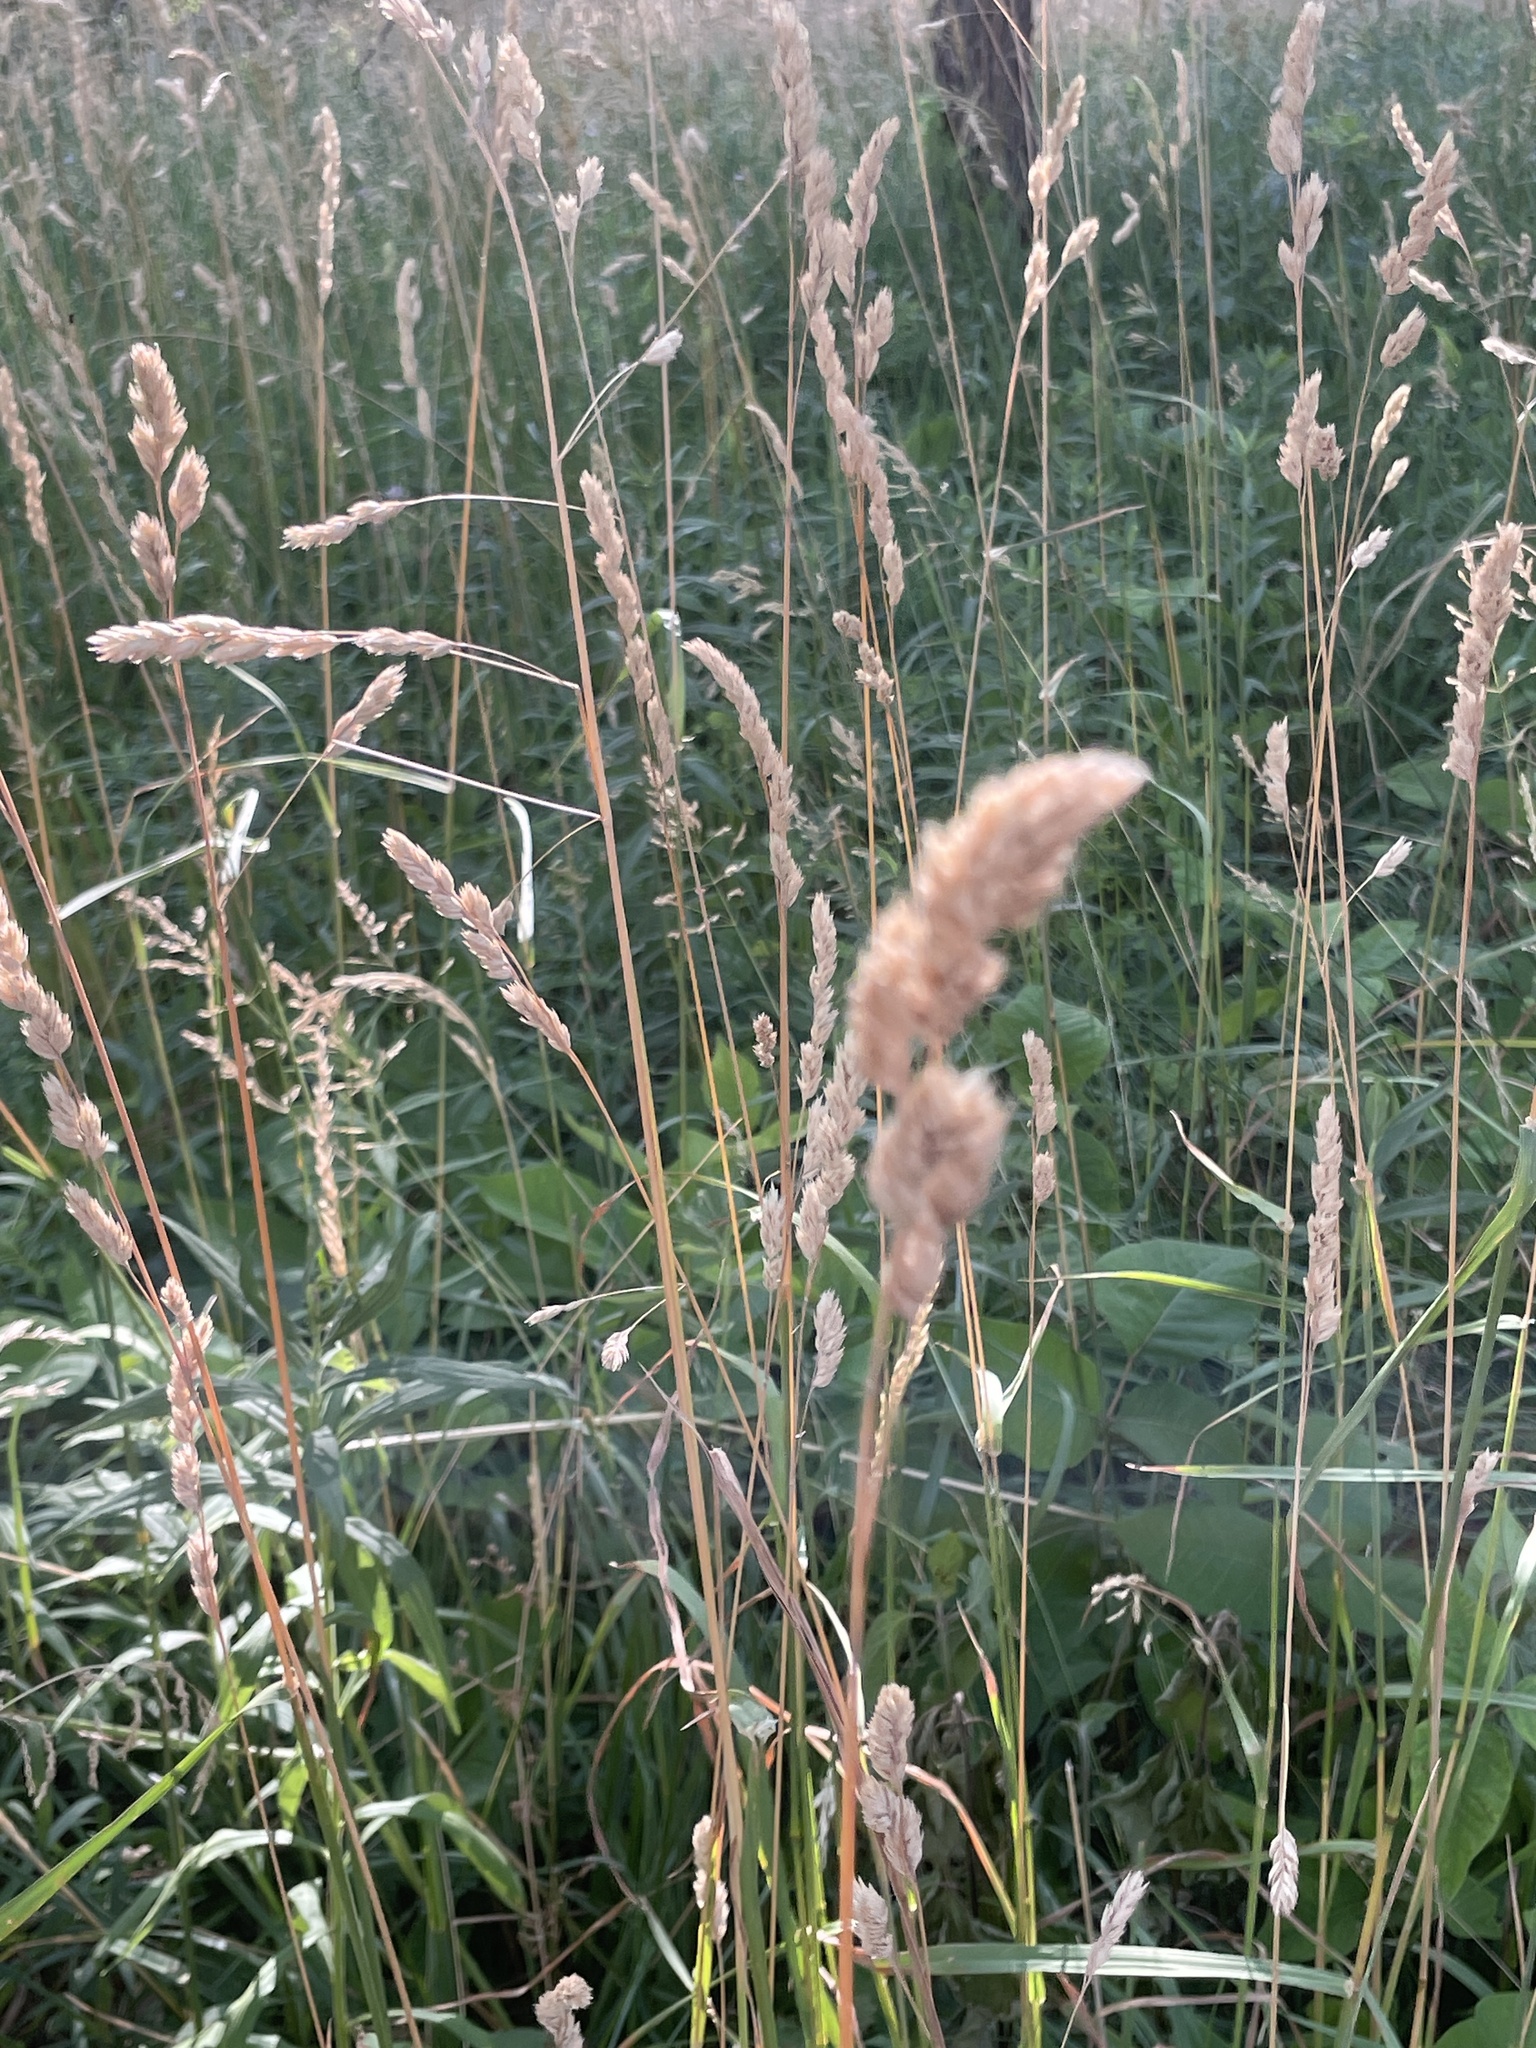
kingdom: Plantae
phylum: Tracheophyta
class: Liliopsida
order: Poales
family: Poaceae
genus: Dactylis
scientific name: Dactylis glomerata
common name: Orchardgrass
